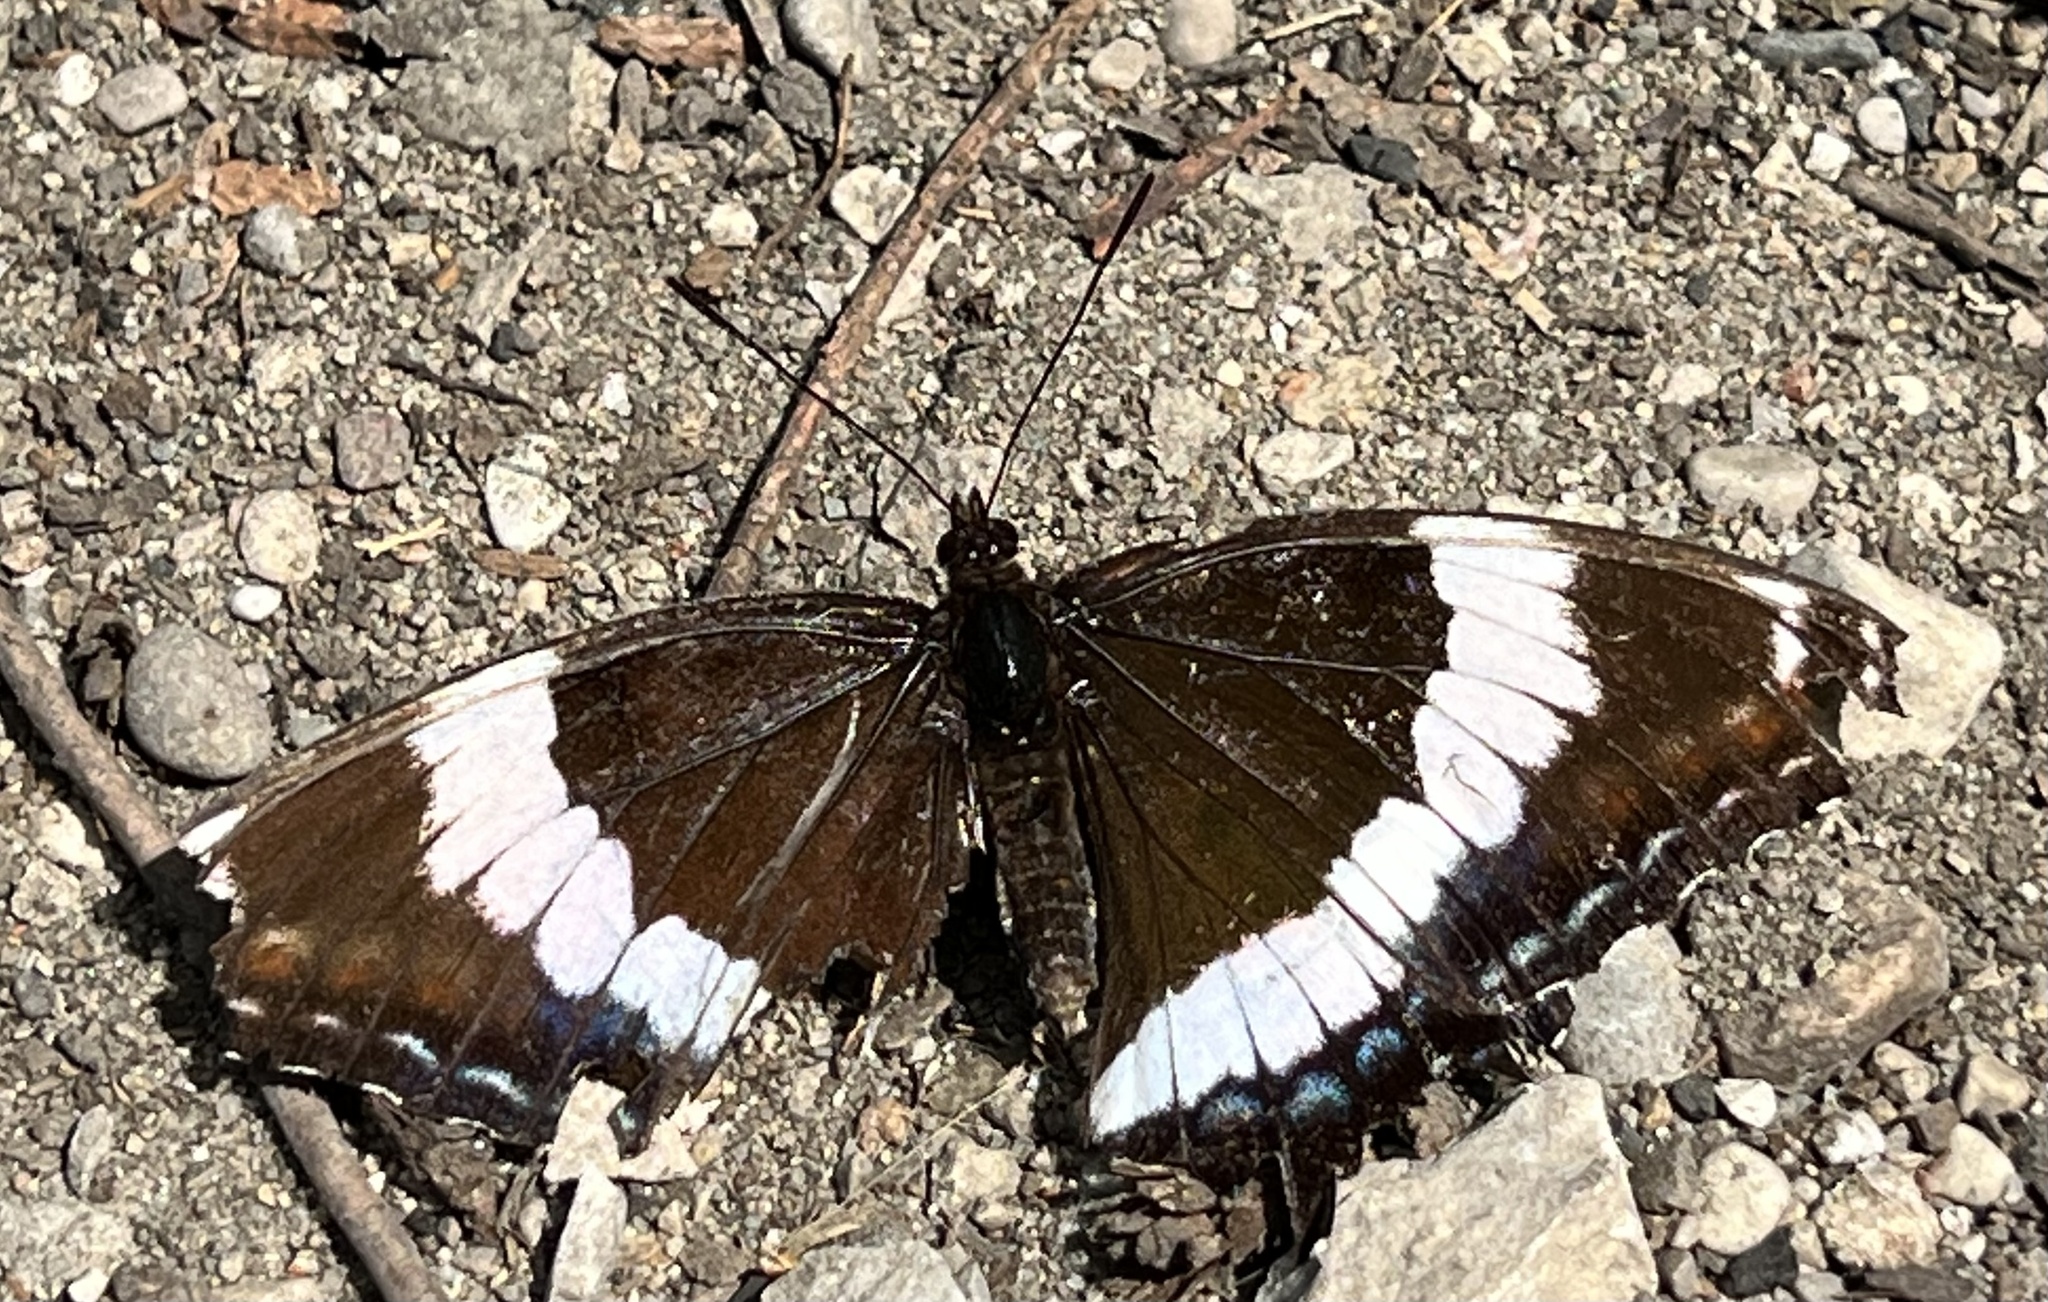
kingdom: Animalia
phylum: Arthropoda
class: Insecta
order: Lepidoptera
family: Nymphalidae
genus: Limenitis
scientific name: Limenitis arthemis
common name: Red-spotted admiral
